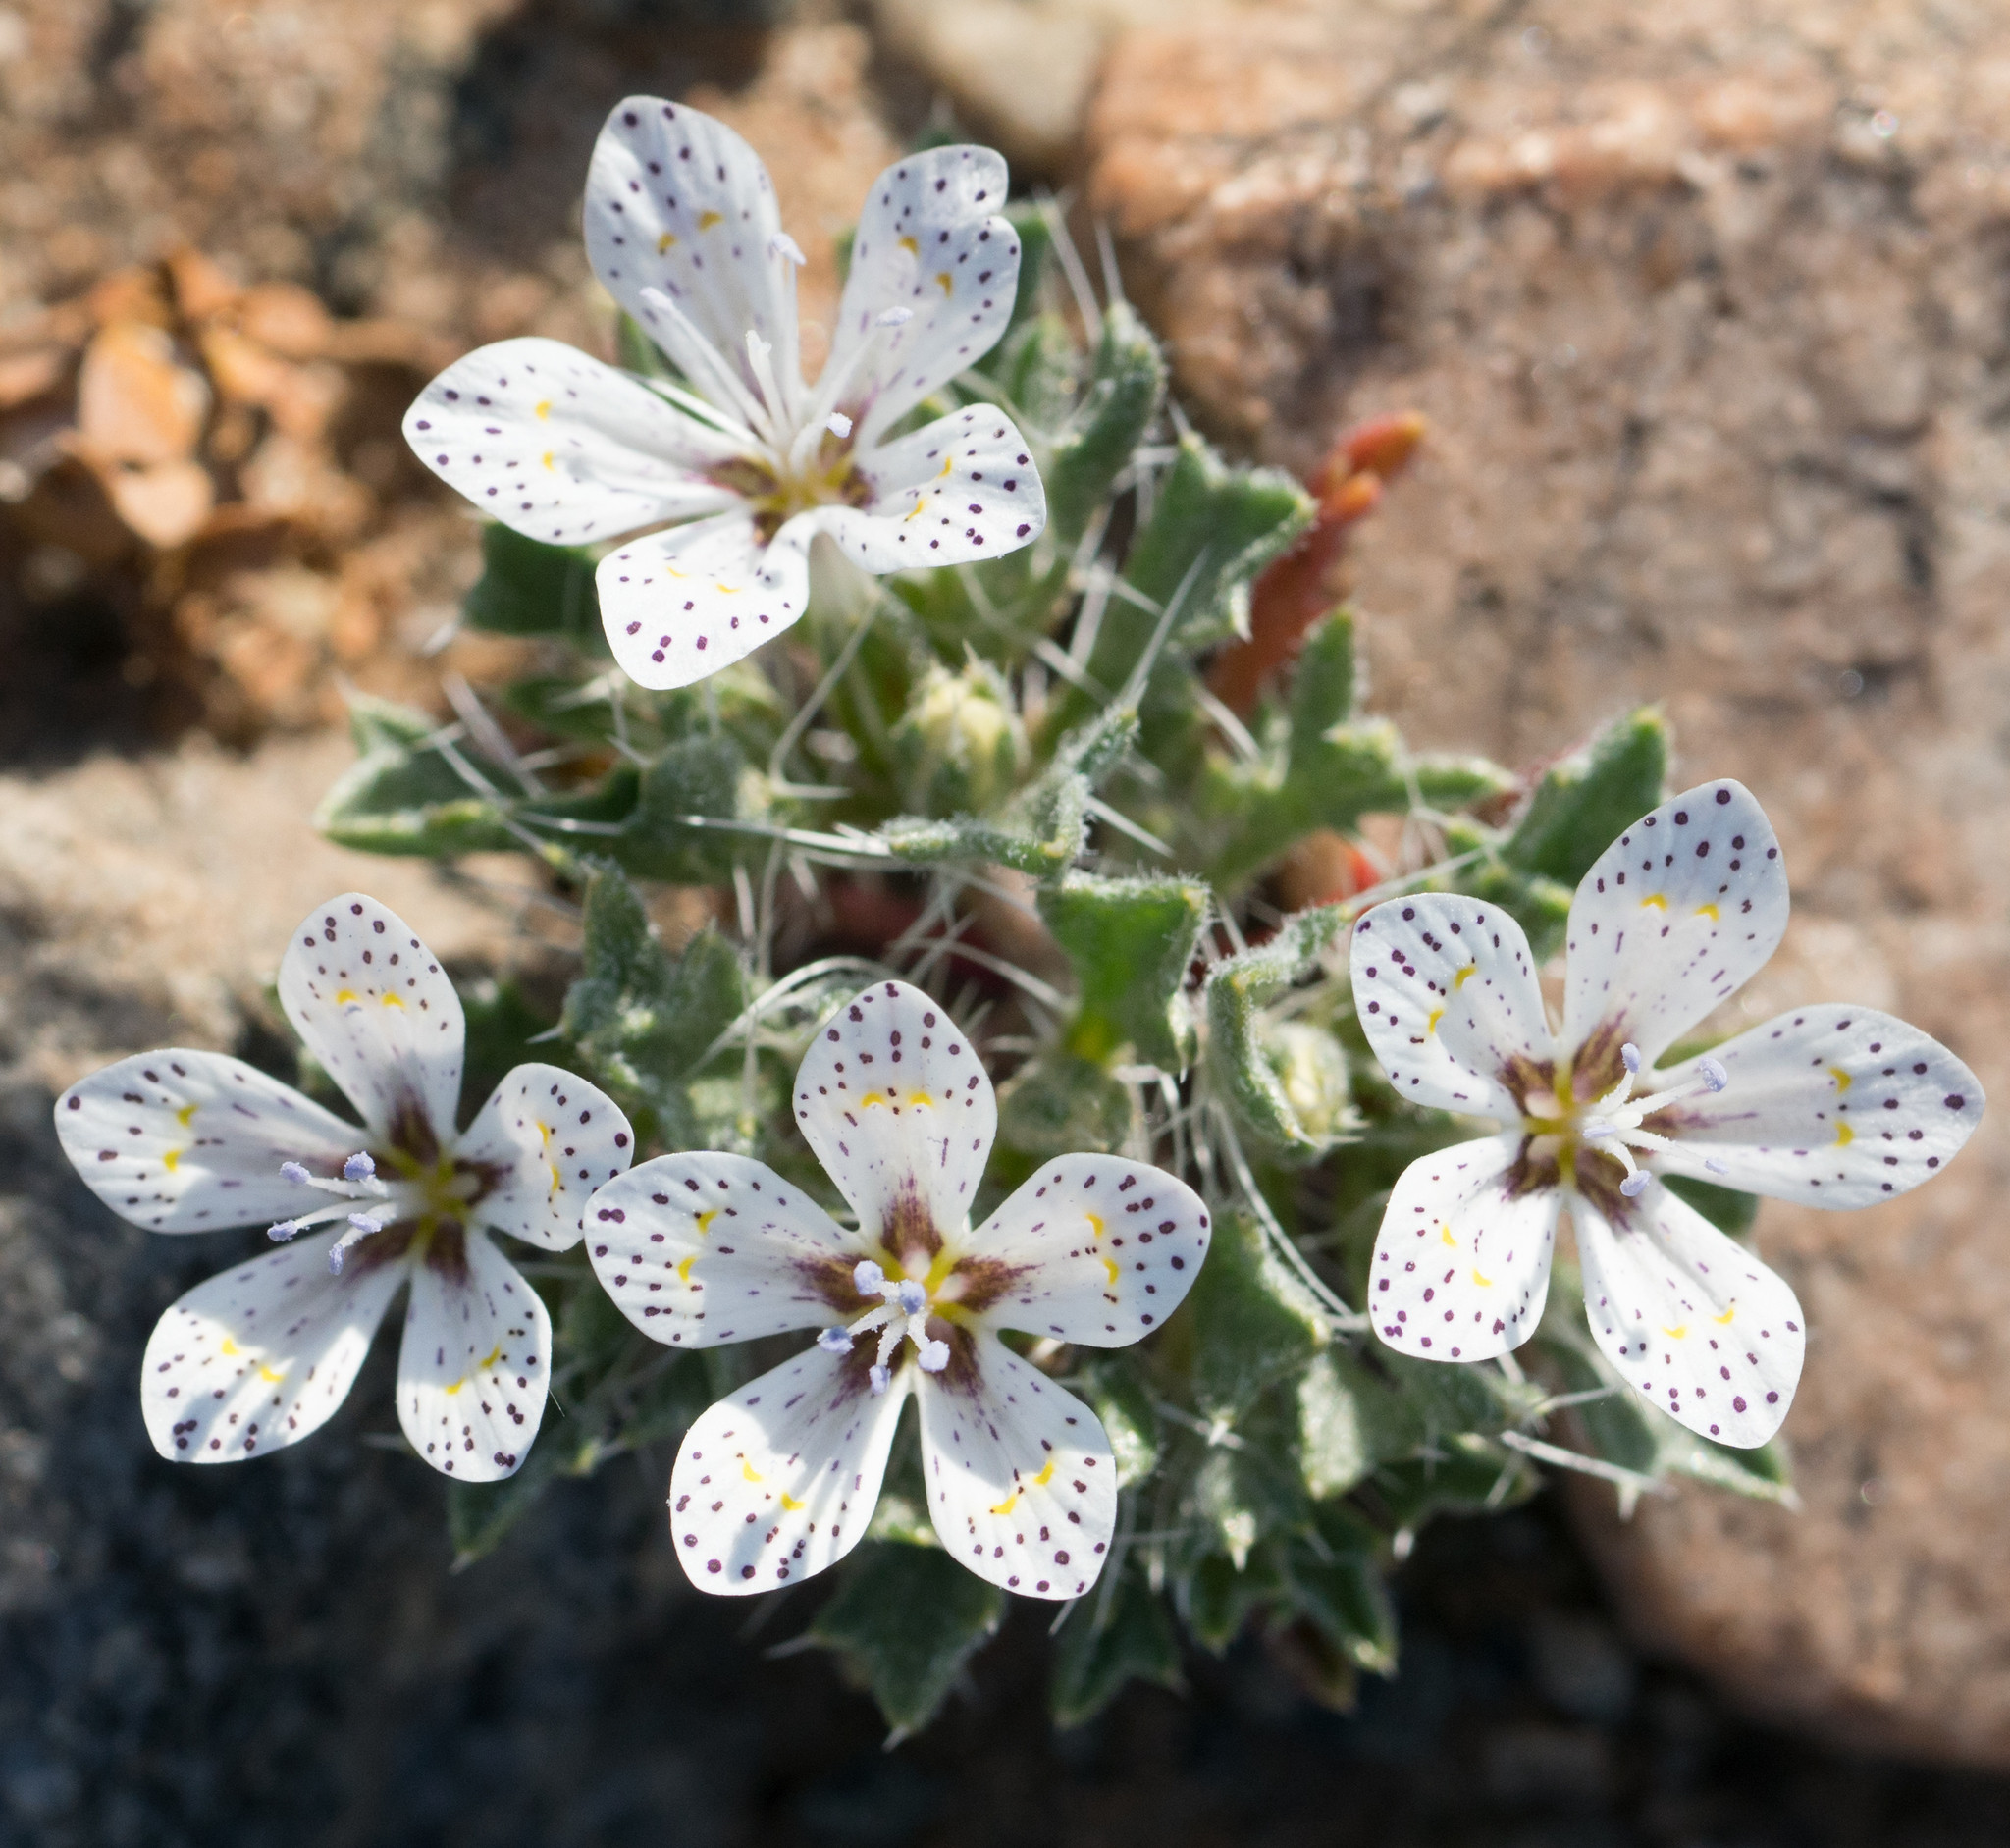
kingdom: Plantae
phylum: Tracheophyta
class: Magnoliopsida
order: Ericales
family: Polemoniaceae
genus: Langloisia
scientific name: Langloisia setosissima
